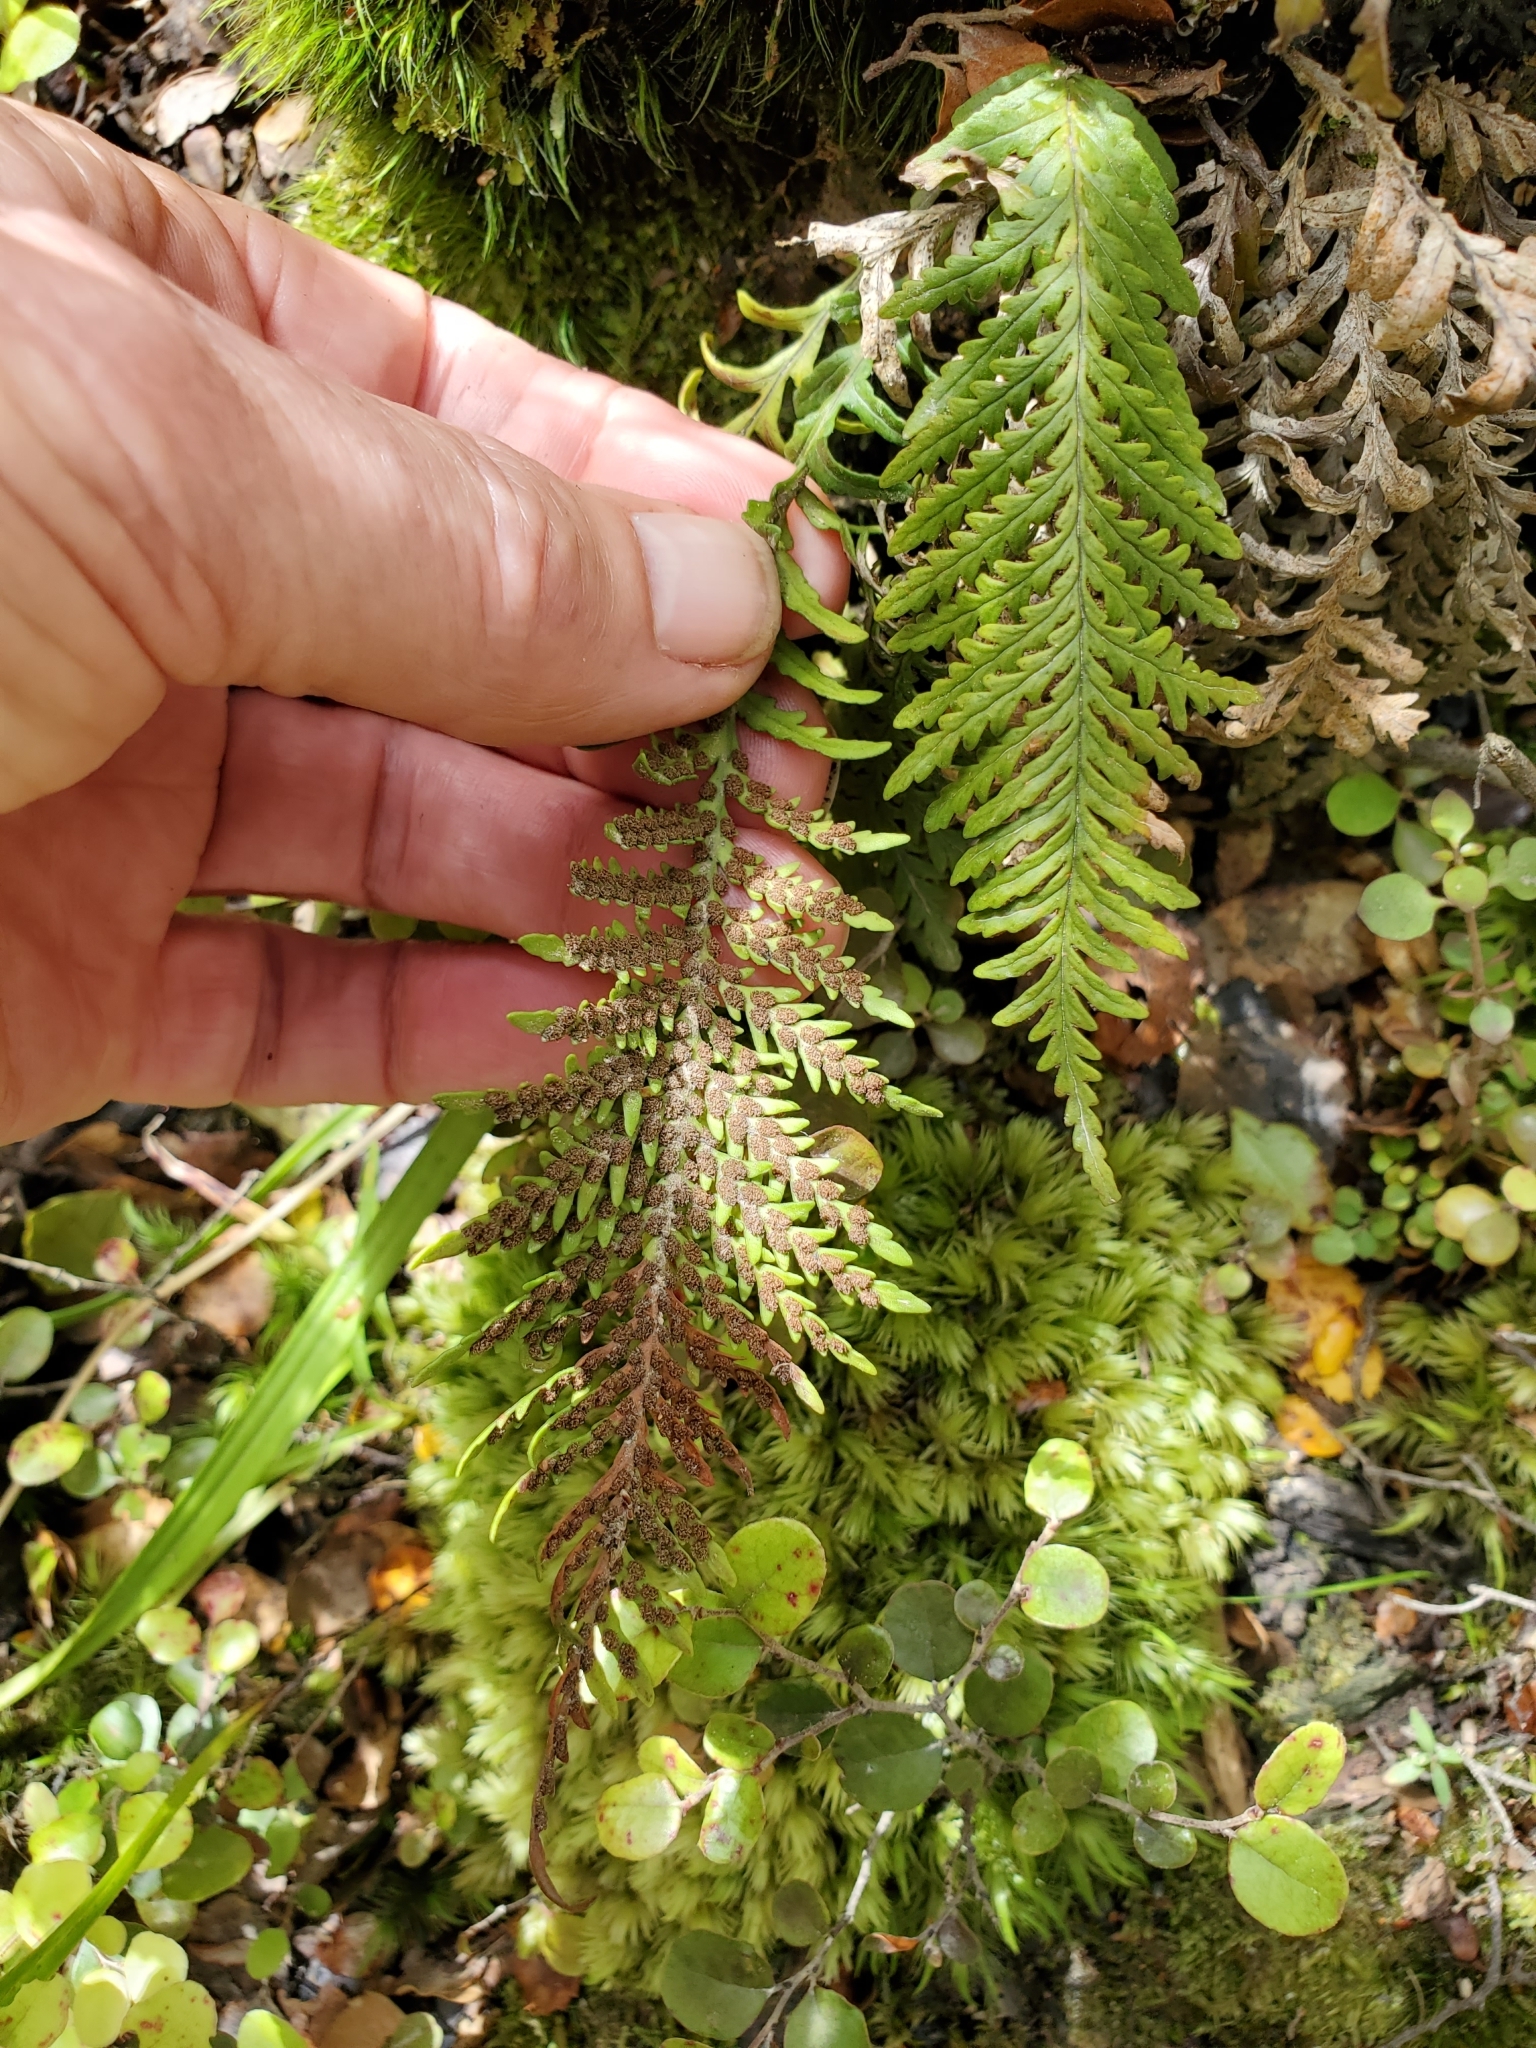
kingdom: Plantae
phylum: Tracheophyta
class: Polypodiopsida
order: Polypodiales
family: Polypodiaceae
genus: Notogrammitis
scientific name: Notogrammitis heterophylla
